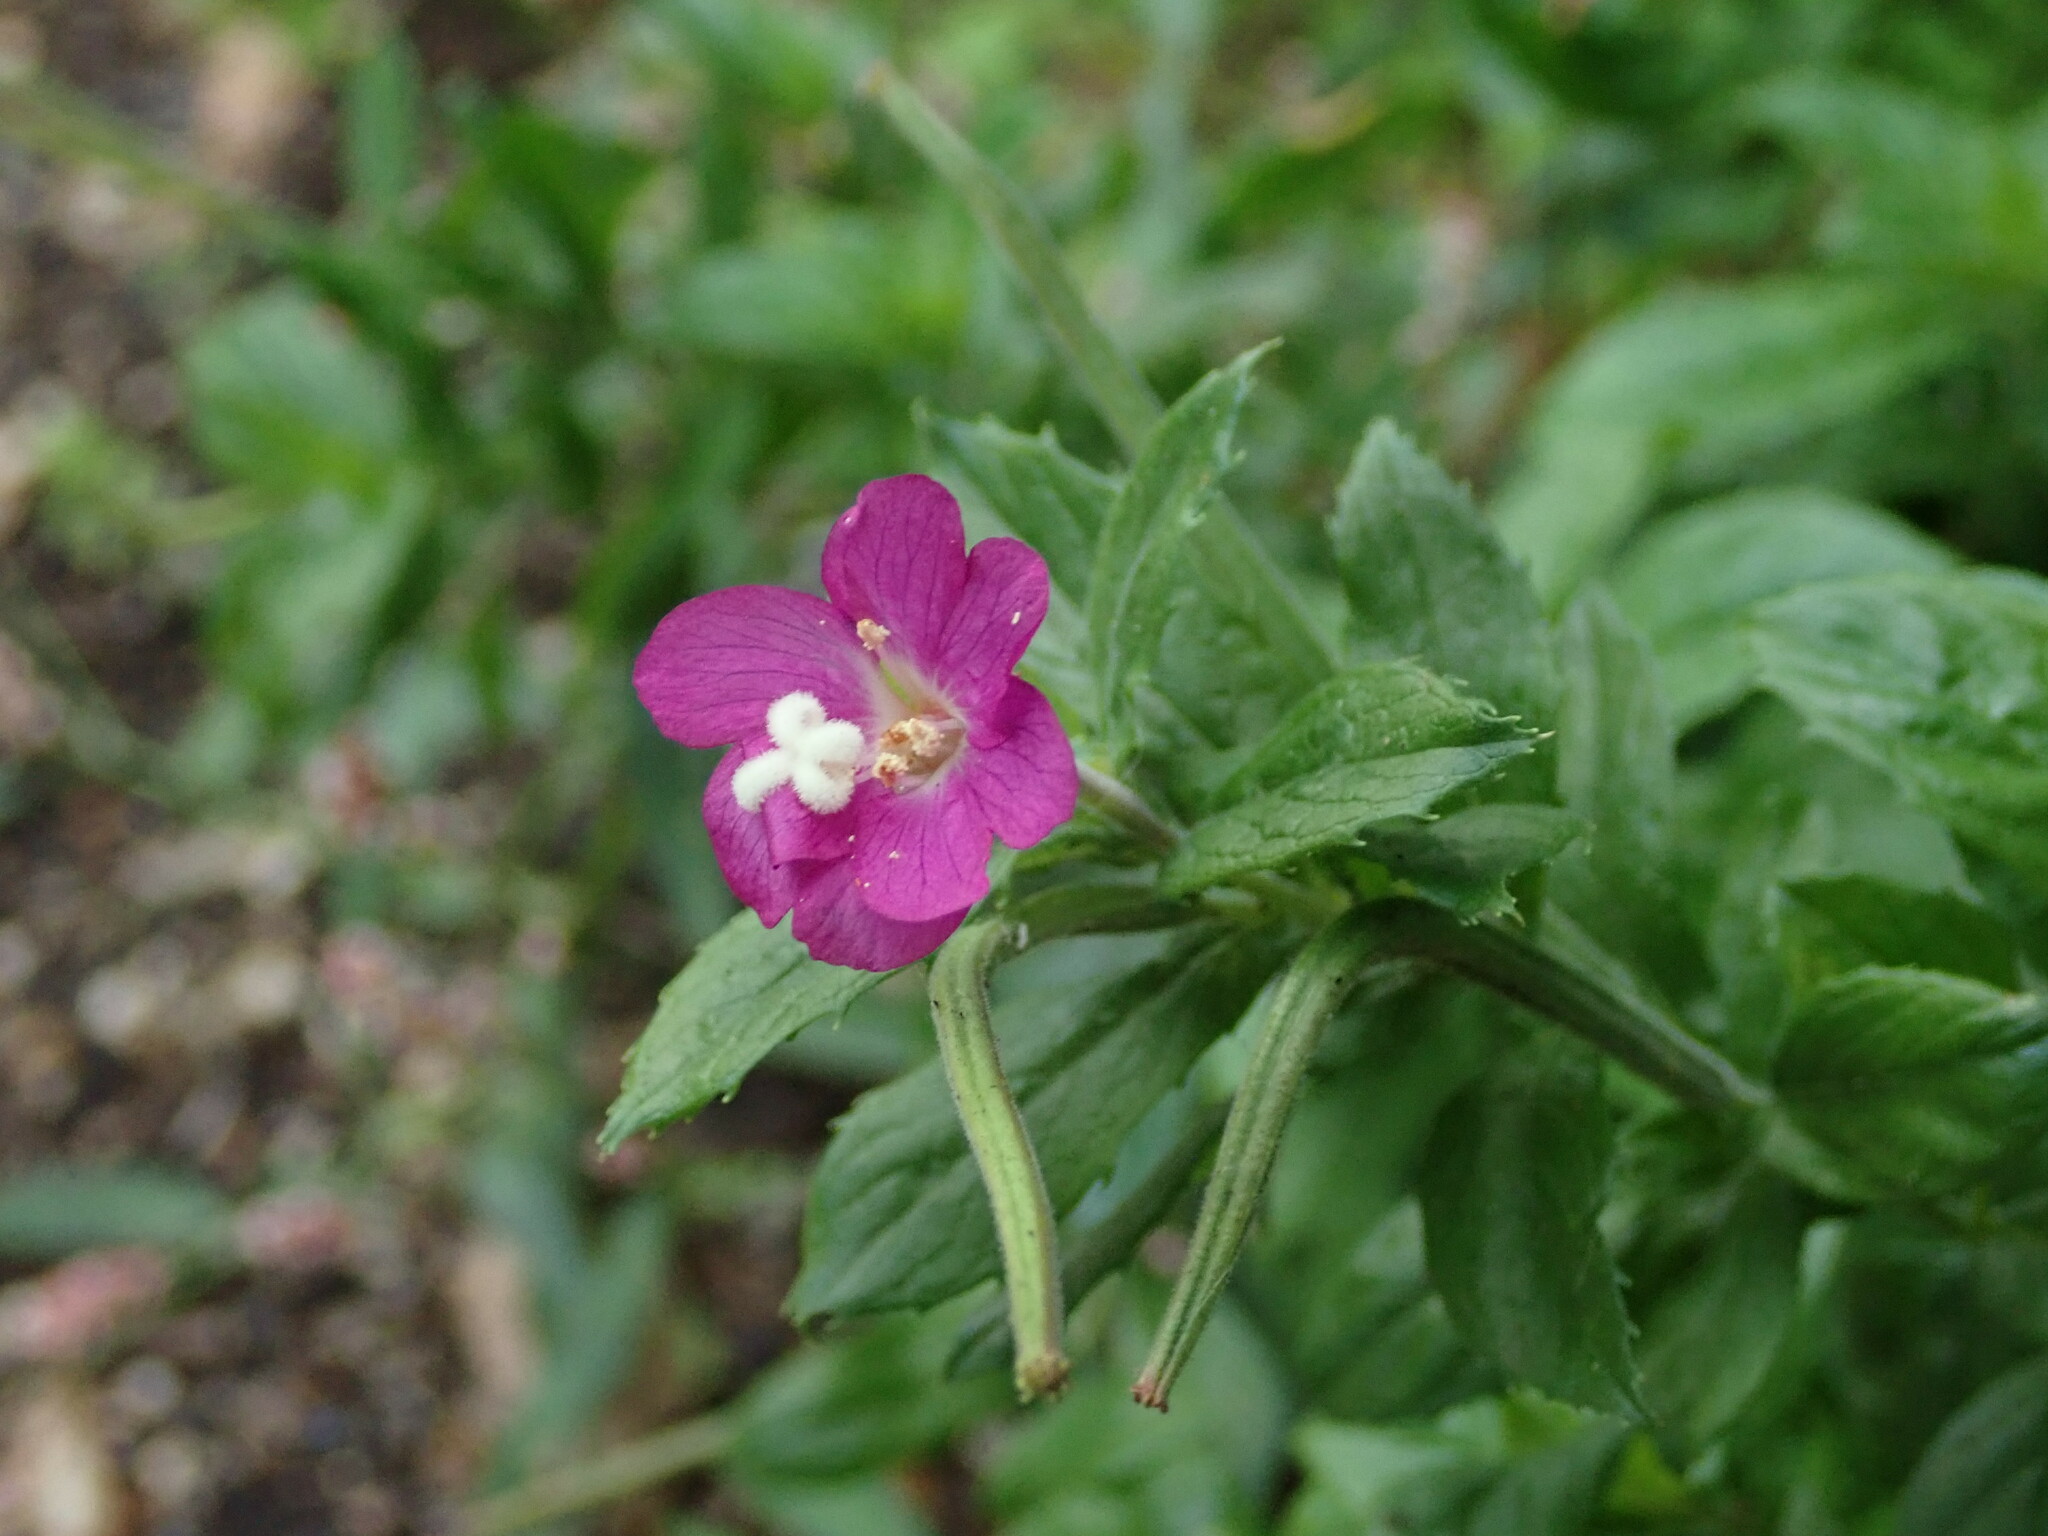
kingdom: Plantae
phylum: Tracheophyta
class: Magnoliopsida
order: Myrtales
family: Onagraceae
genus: Epilobium
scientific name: Epilobium hirsutum
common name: Great willowherb
